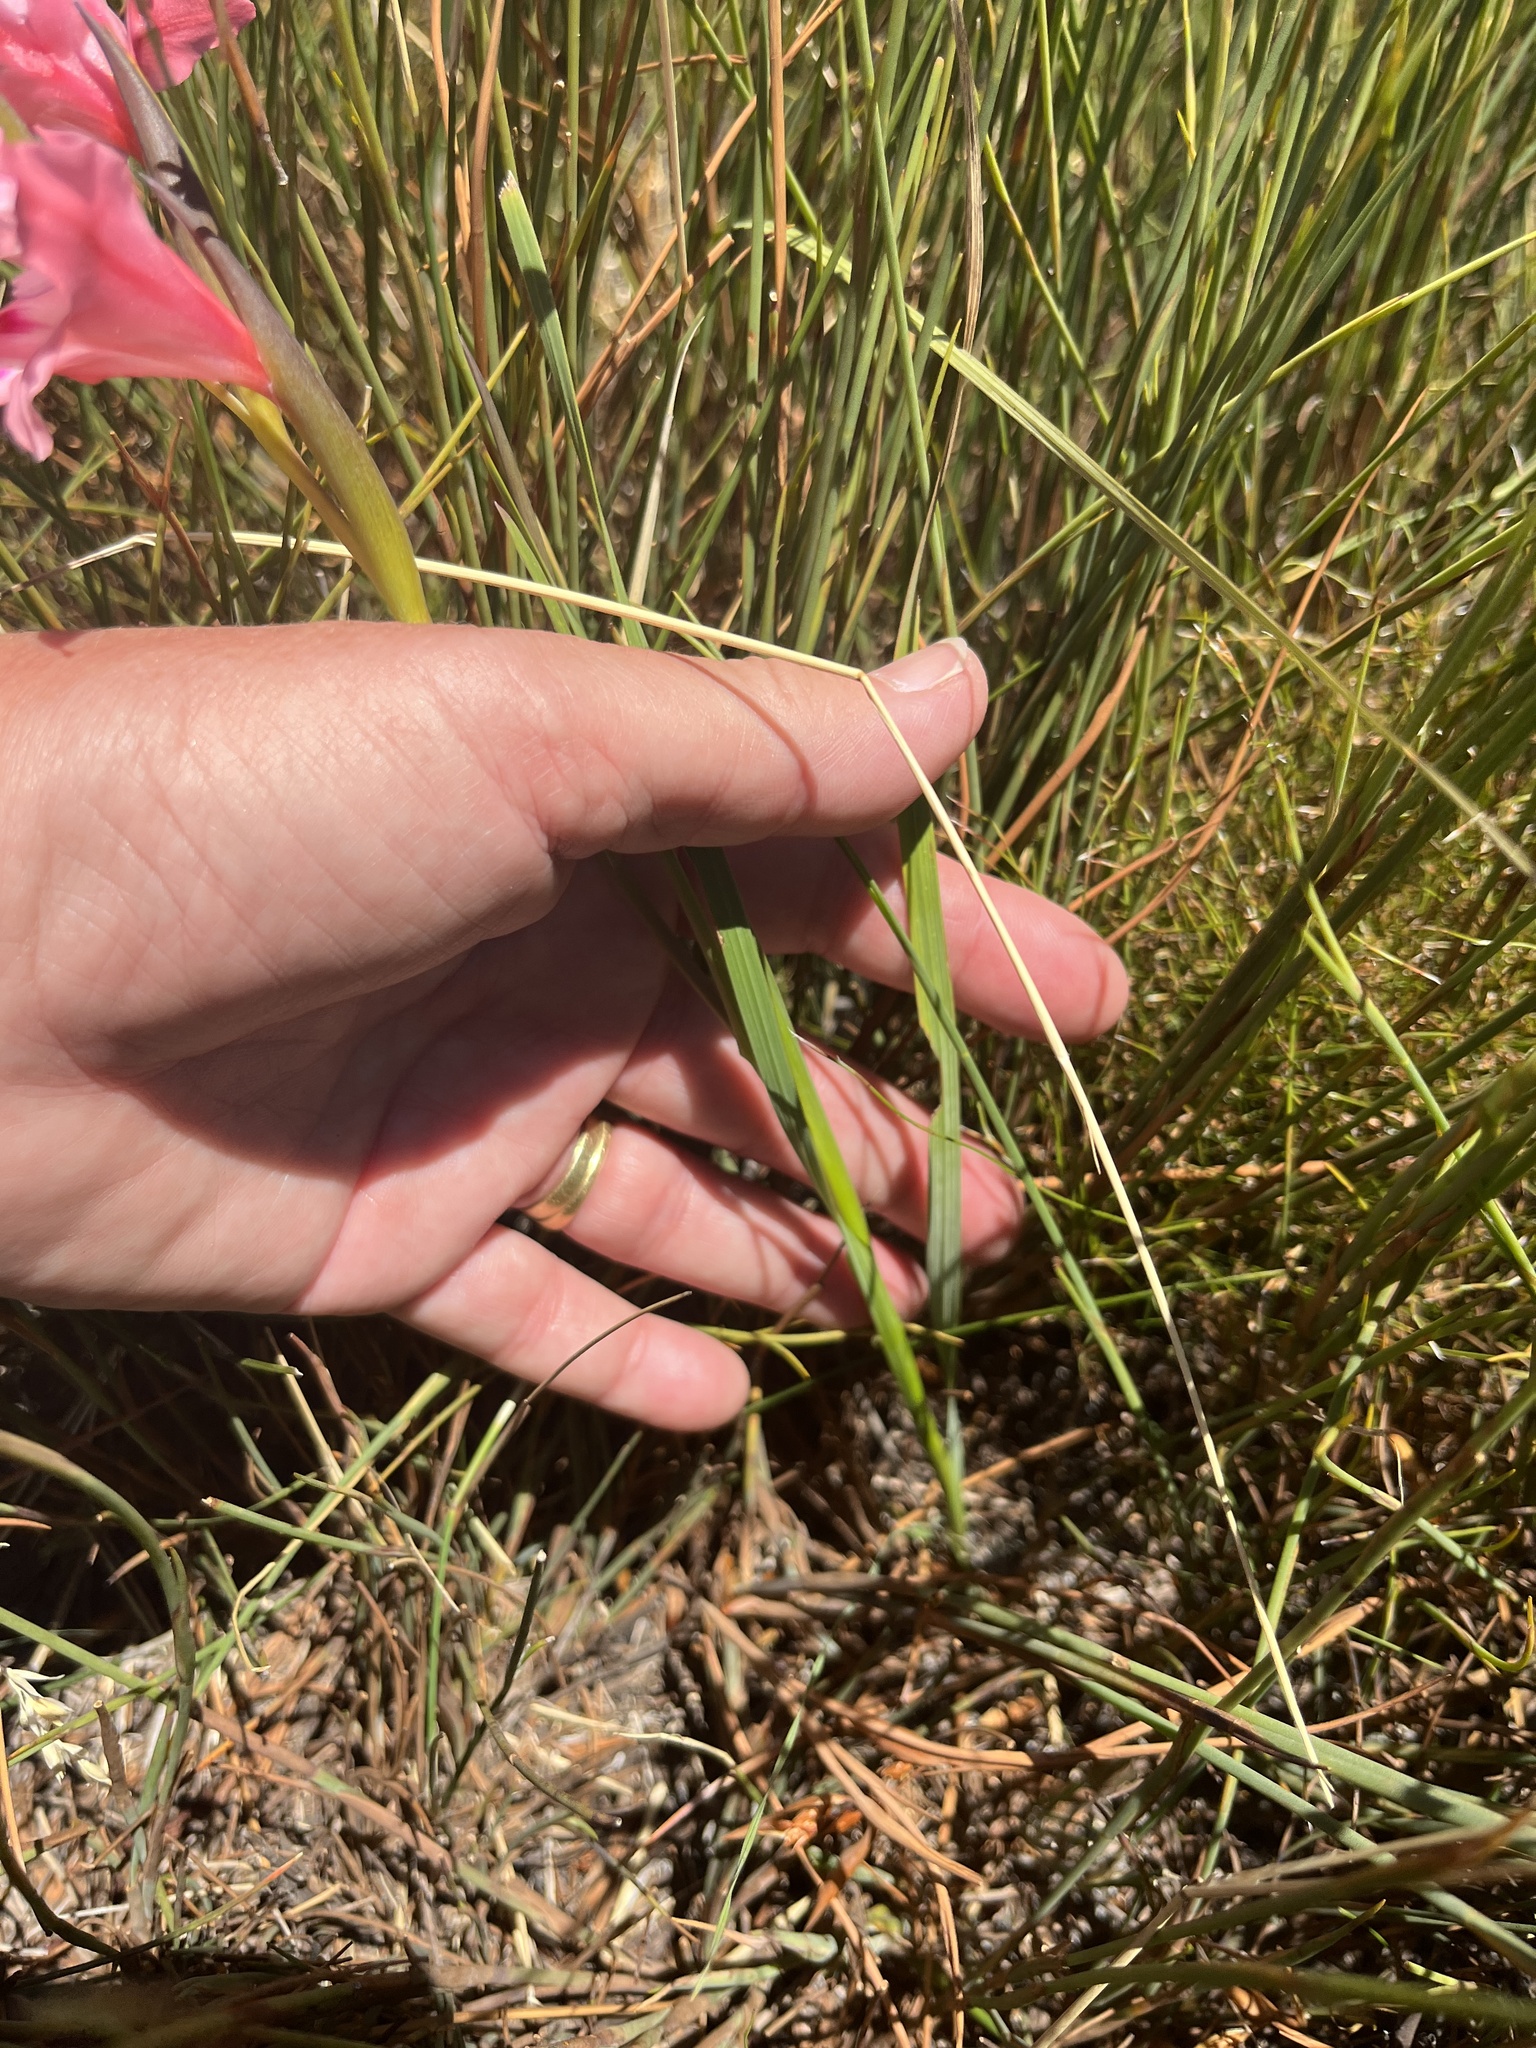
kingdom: Plantae
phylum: Tracheophyta
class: Liliopsida
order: Asparagales
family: Iridaceae
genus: Gladiolus
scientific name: Gladiolus carneus
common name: Painted-lady
